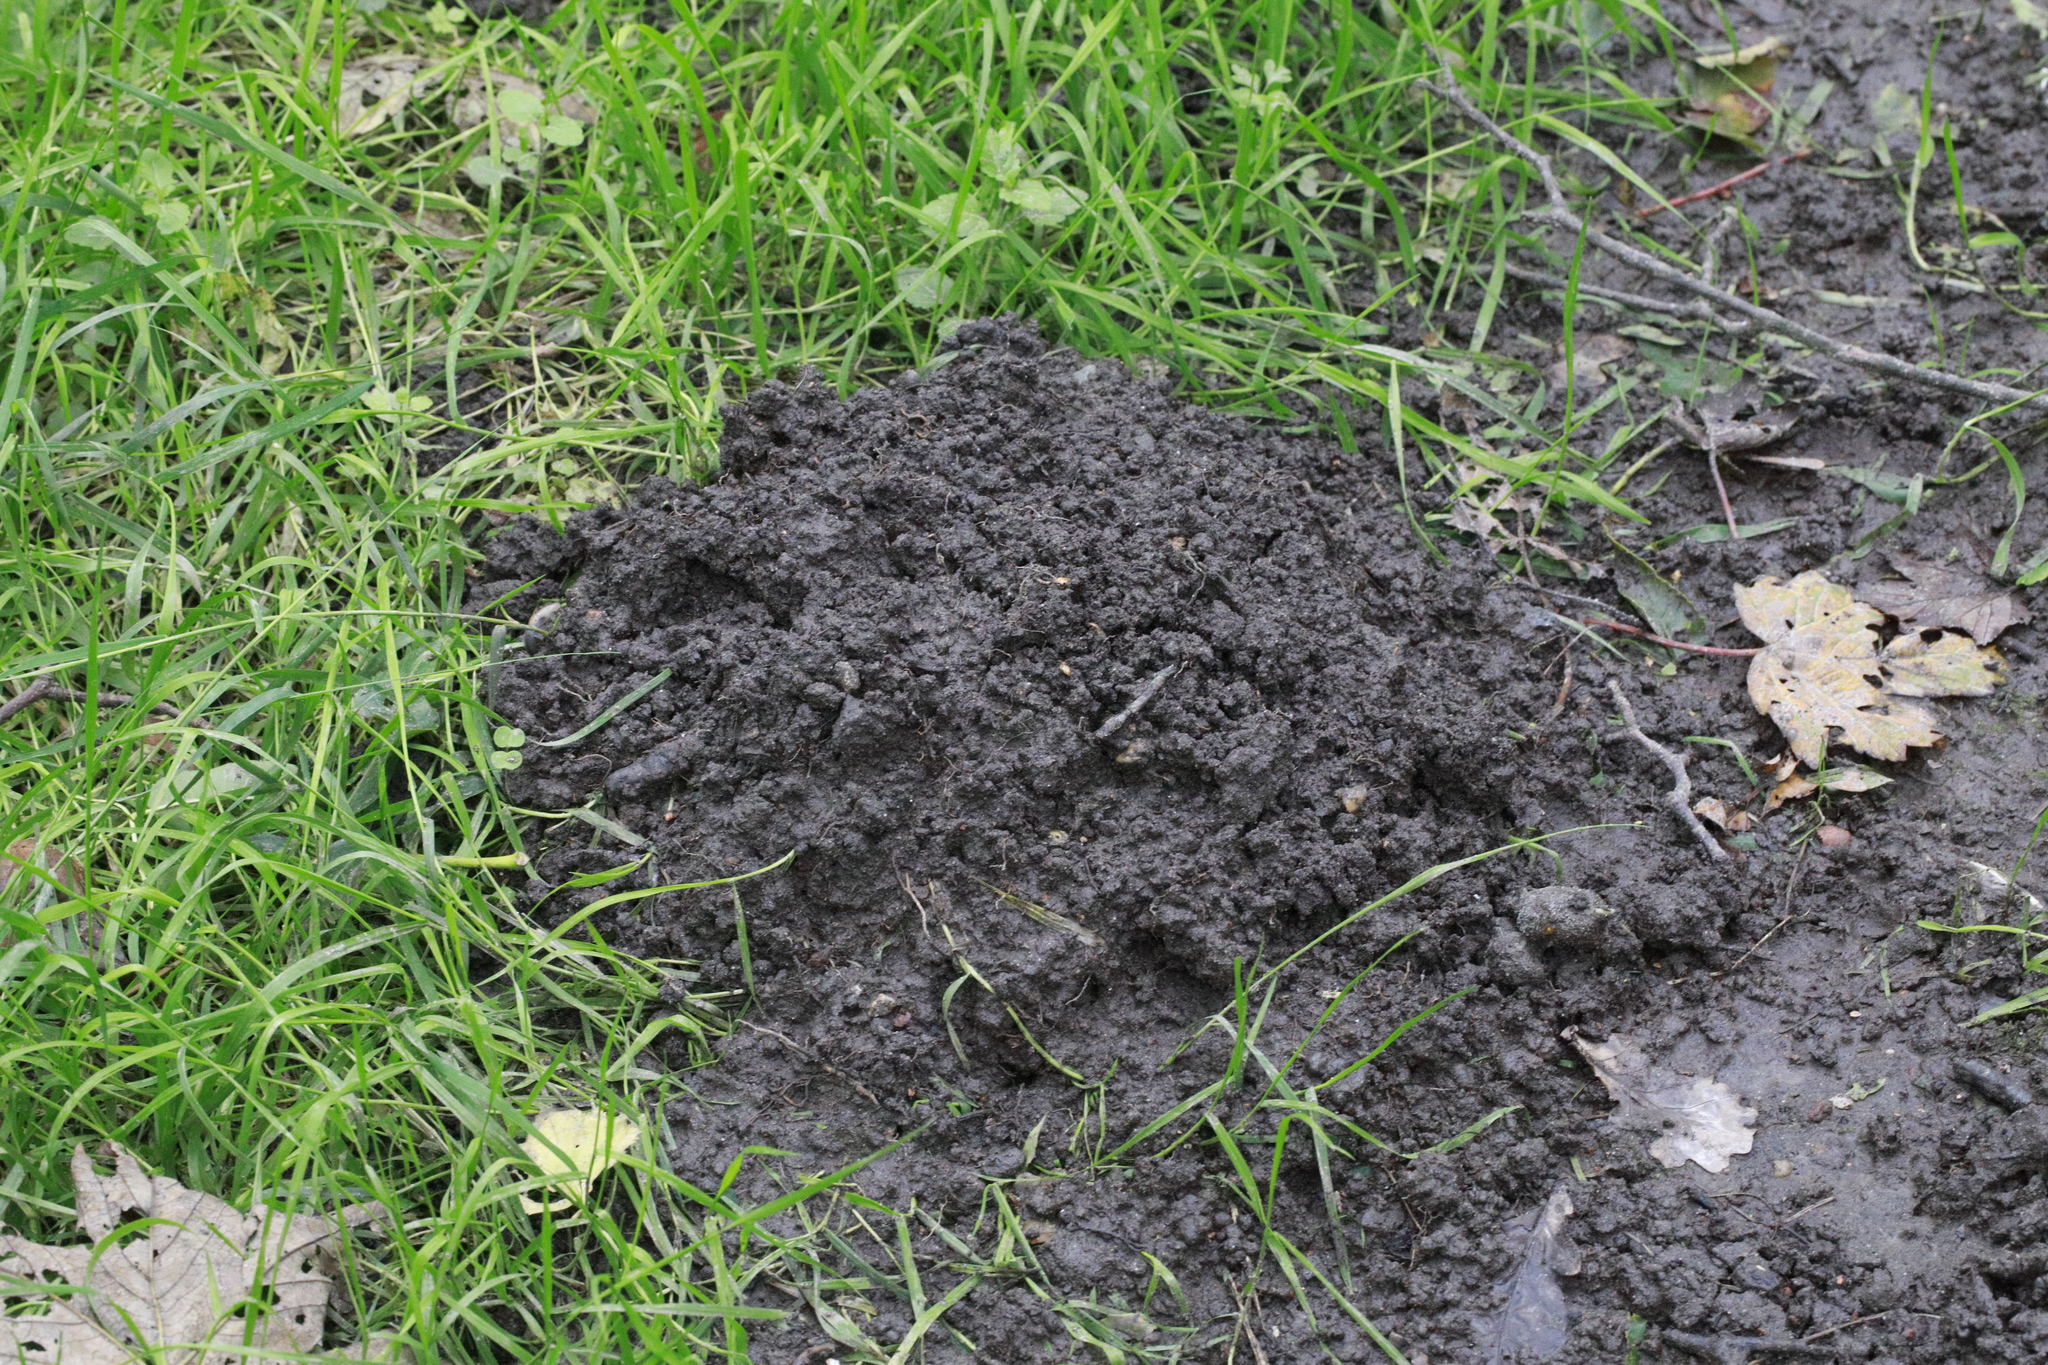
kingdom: Animalia
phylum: Chordata
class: Mammalia
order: Soricomorpha
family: Talpidae
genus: Talpa
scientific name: Talpa europaea
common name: European mole
